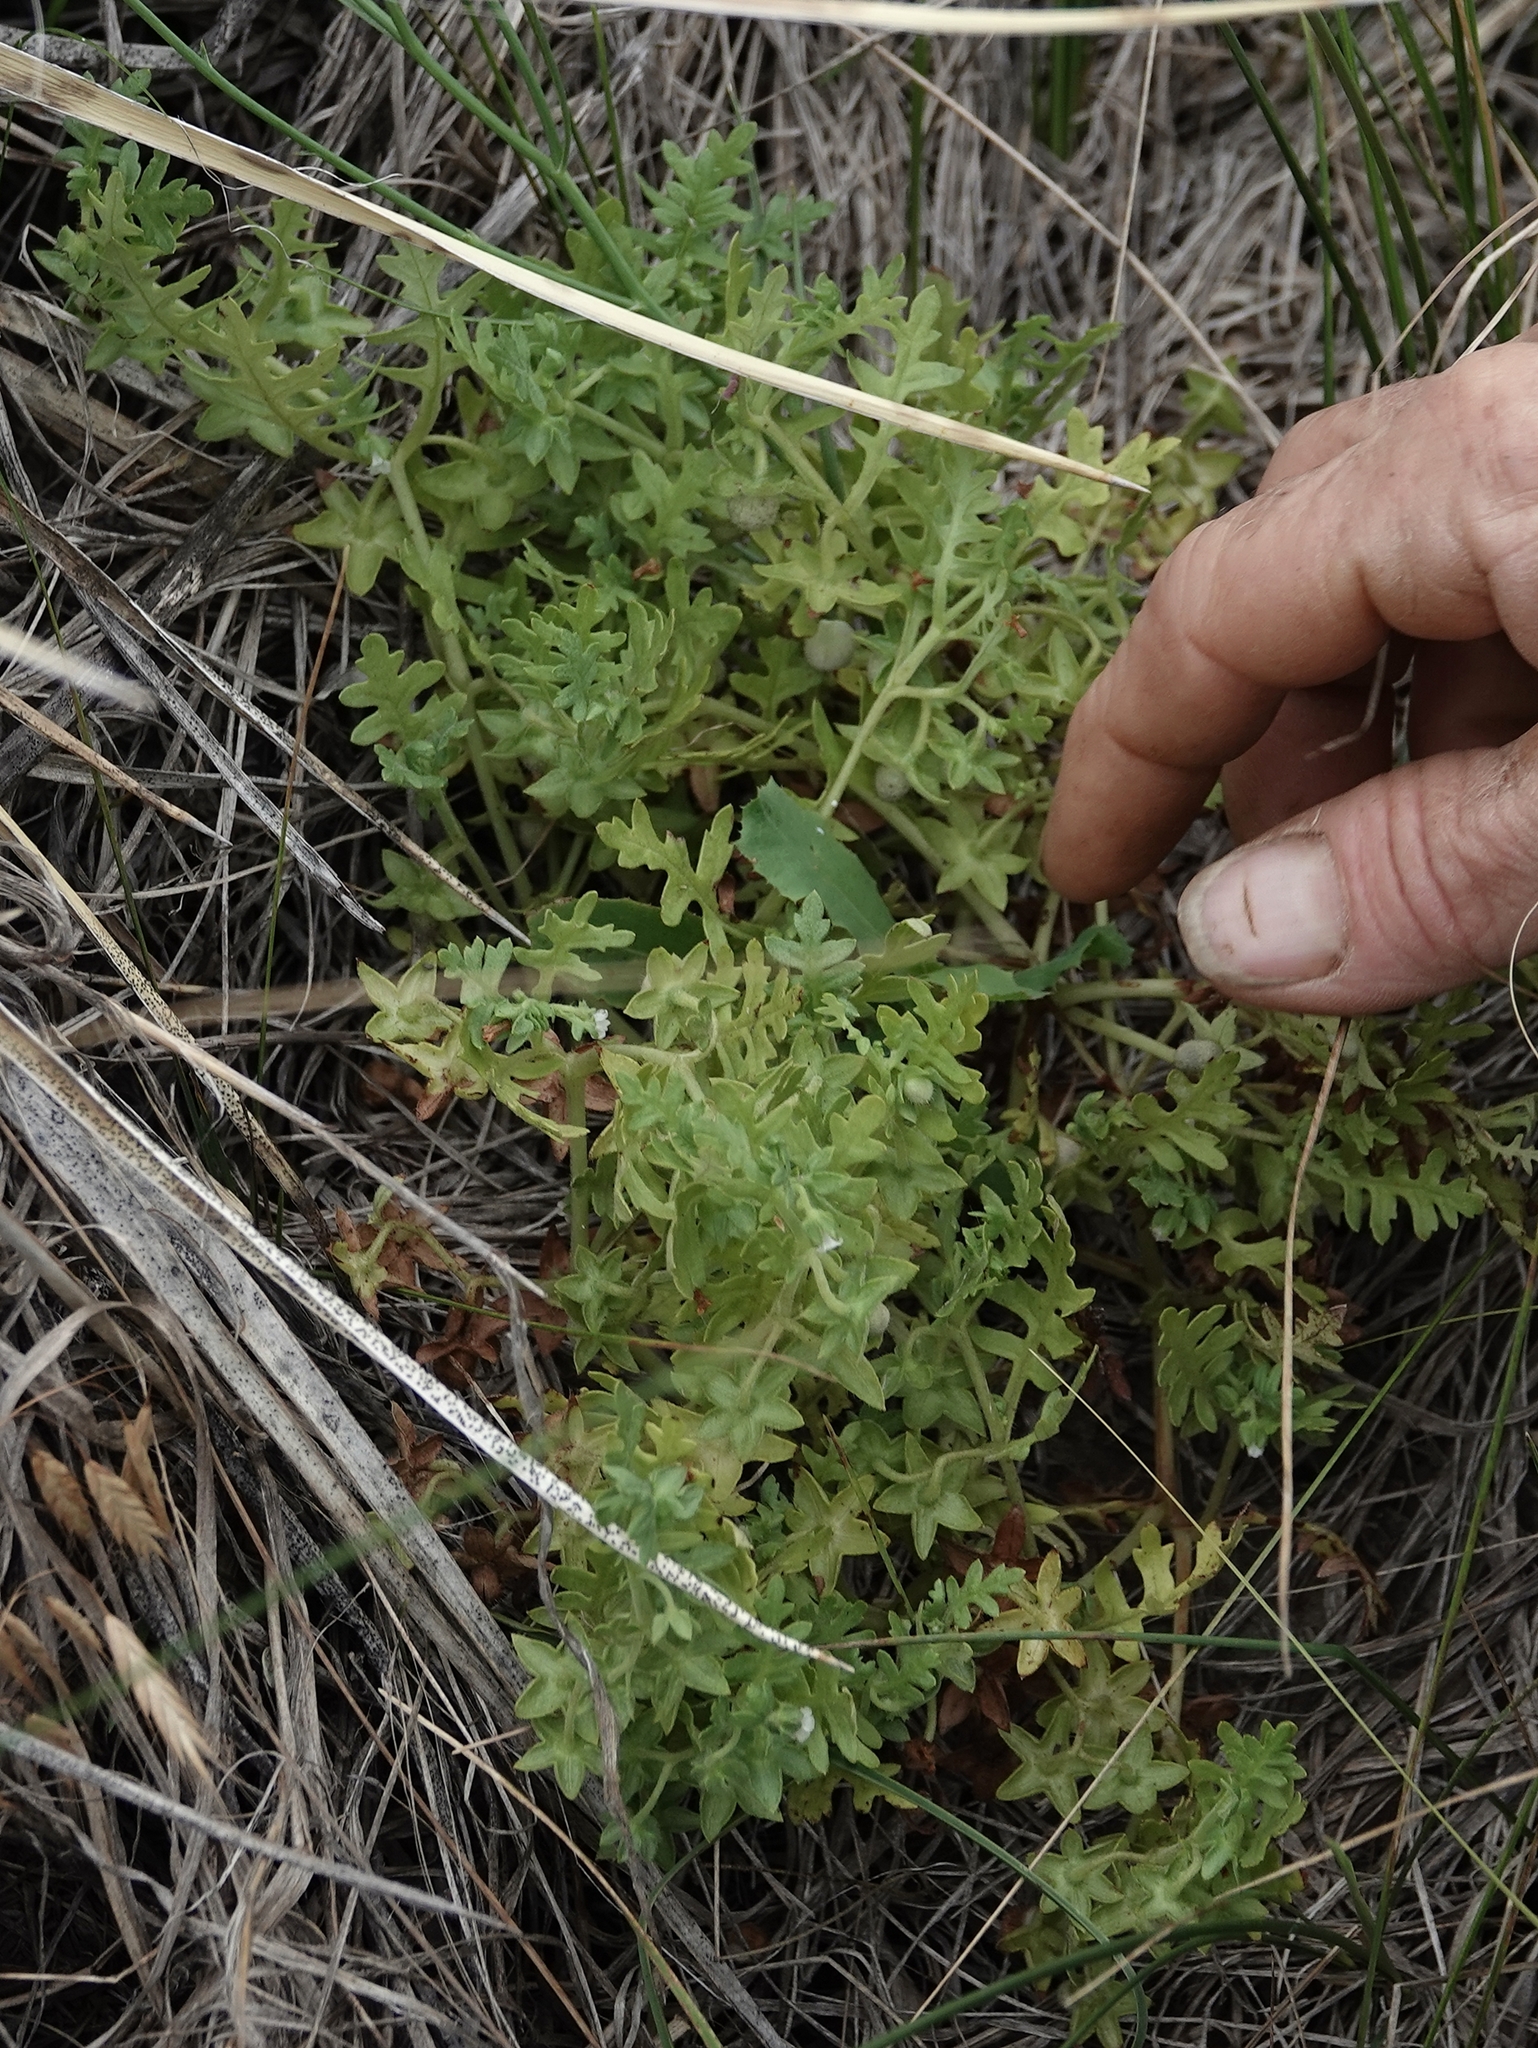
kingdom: Plantae
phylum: Tracheophyta
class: Magnoliopsida
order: Boraginales
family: Hydrophyllaceae
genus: Ellisia
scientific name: Ellisia nyctelea
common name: Aunt lucy
